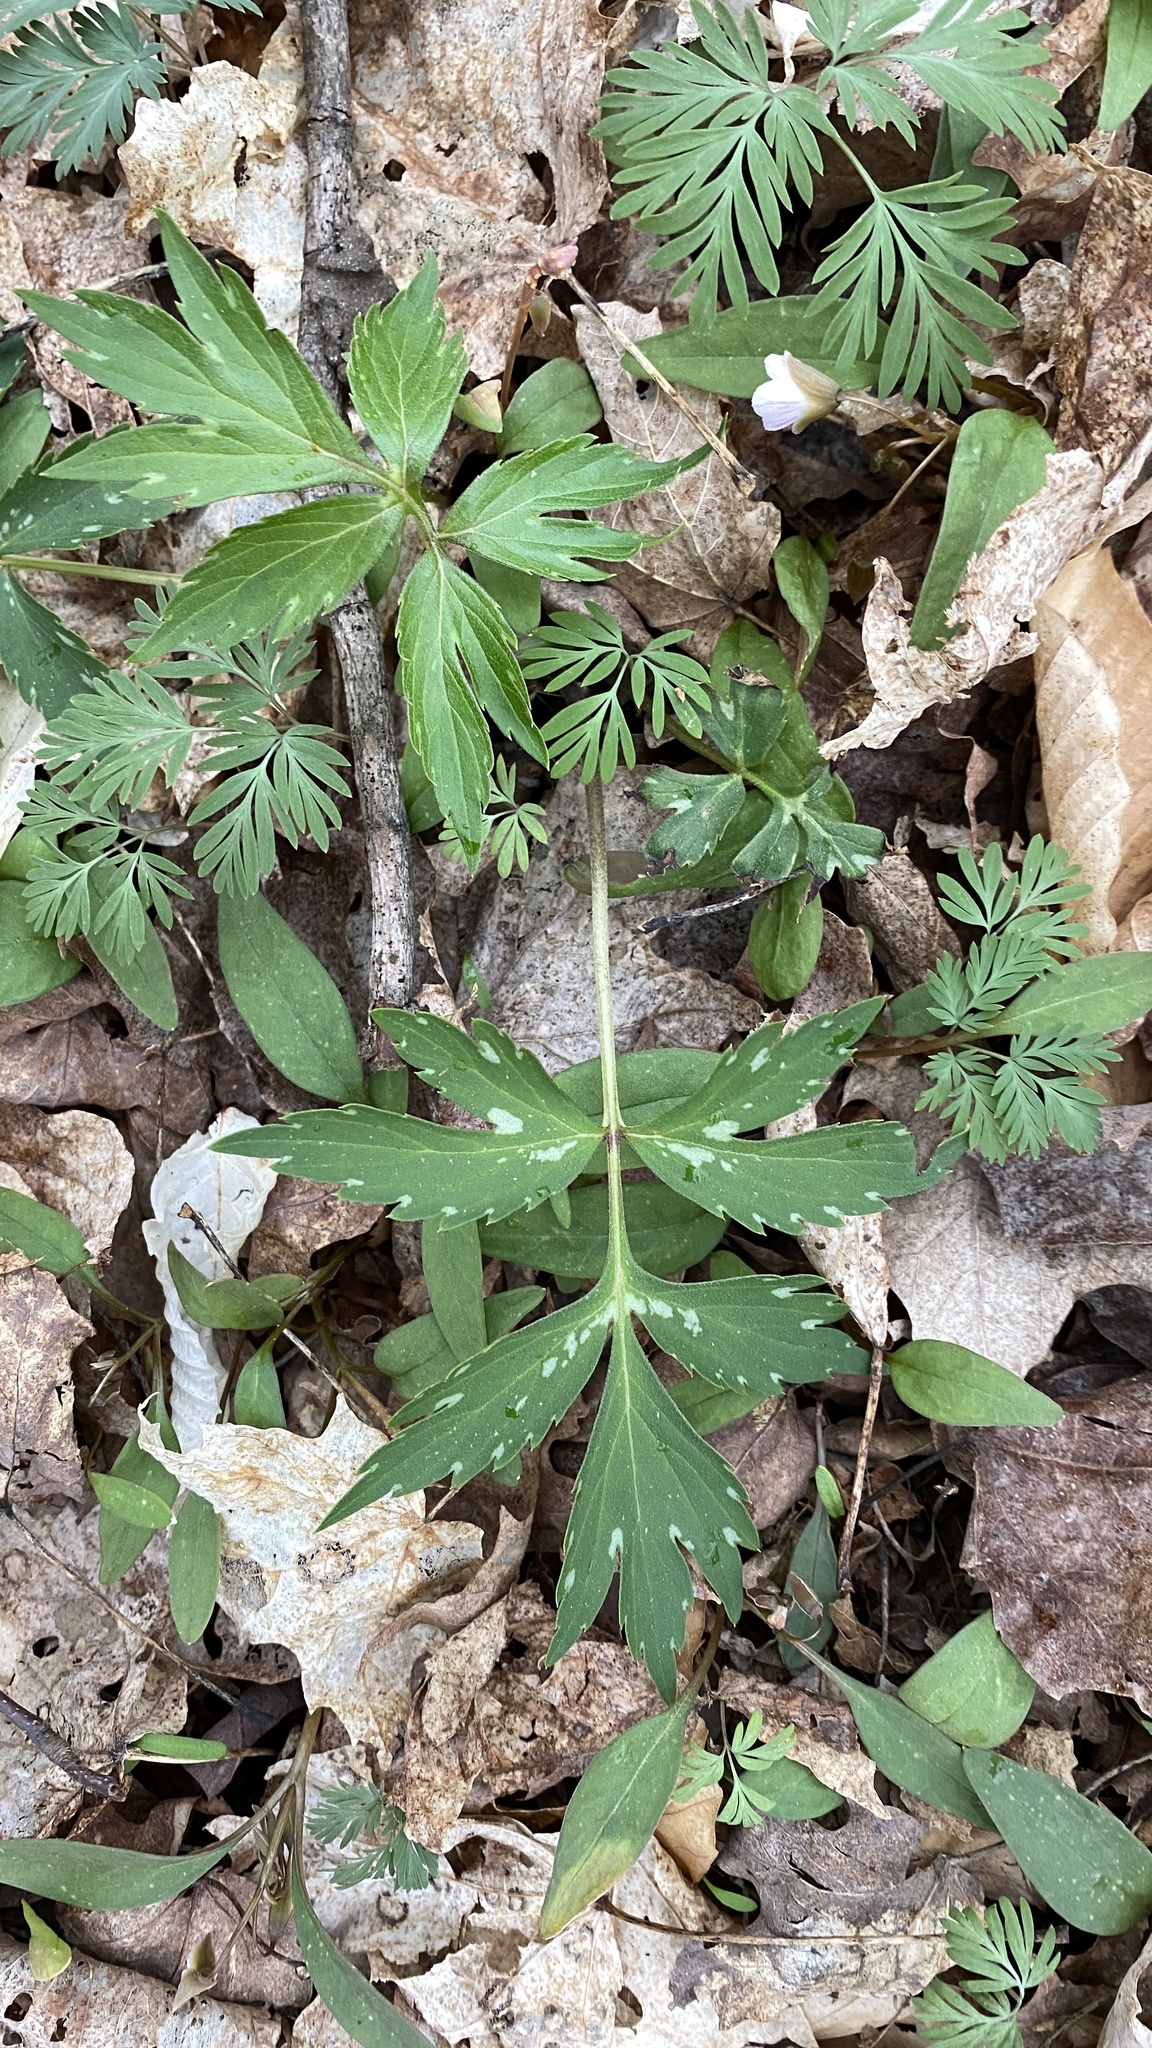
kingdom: Plantae
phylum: Tracheophyta
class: Magnoliopsida
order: Boraginales
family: Hydrophyllaceae
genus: Hydrophyllum
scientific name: Hydrophyllum virginianum
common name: Virginia waterleaf
